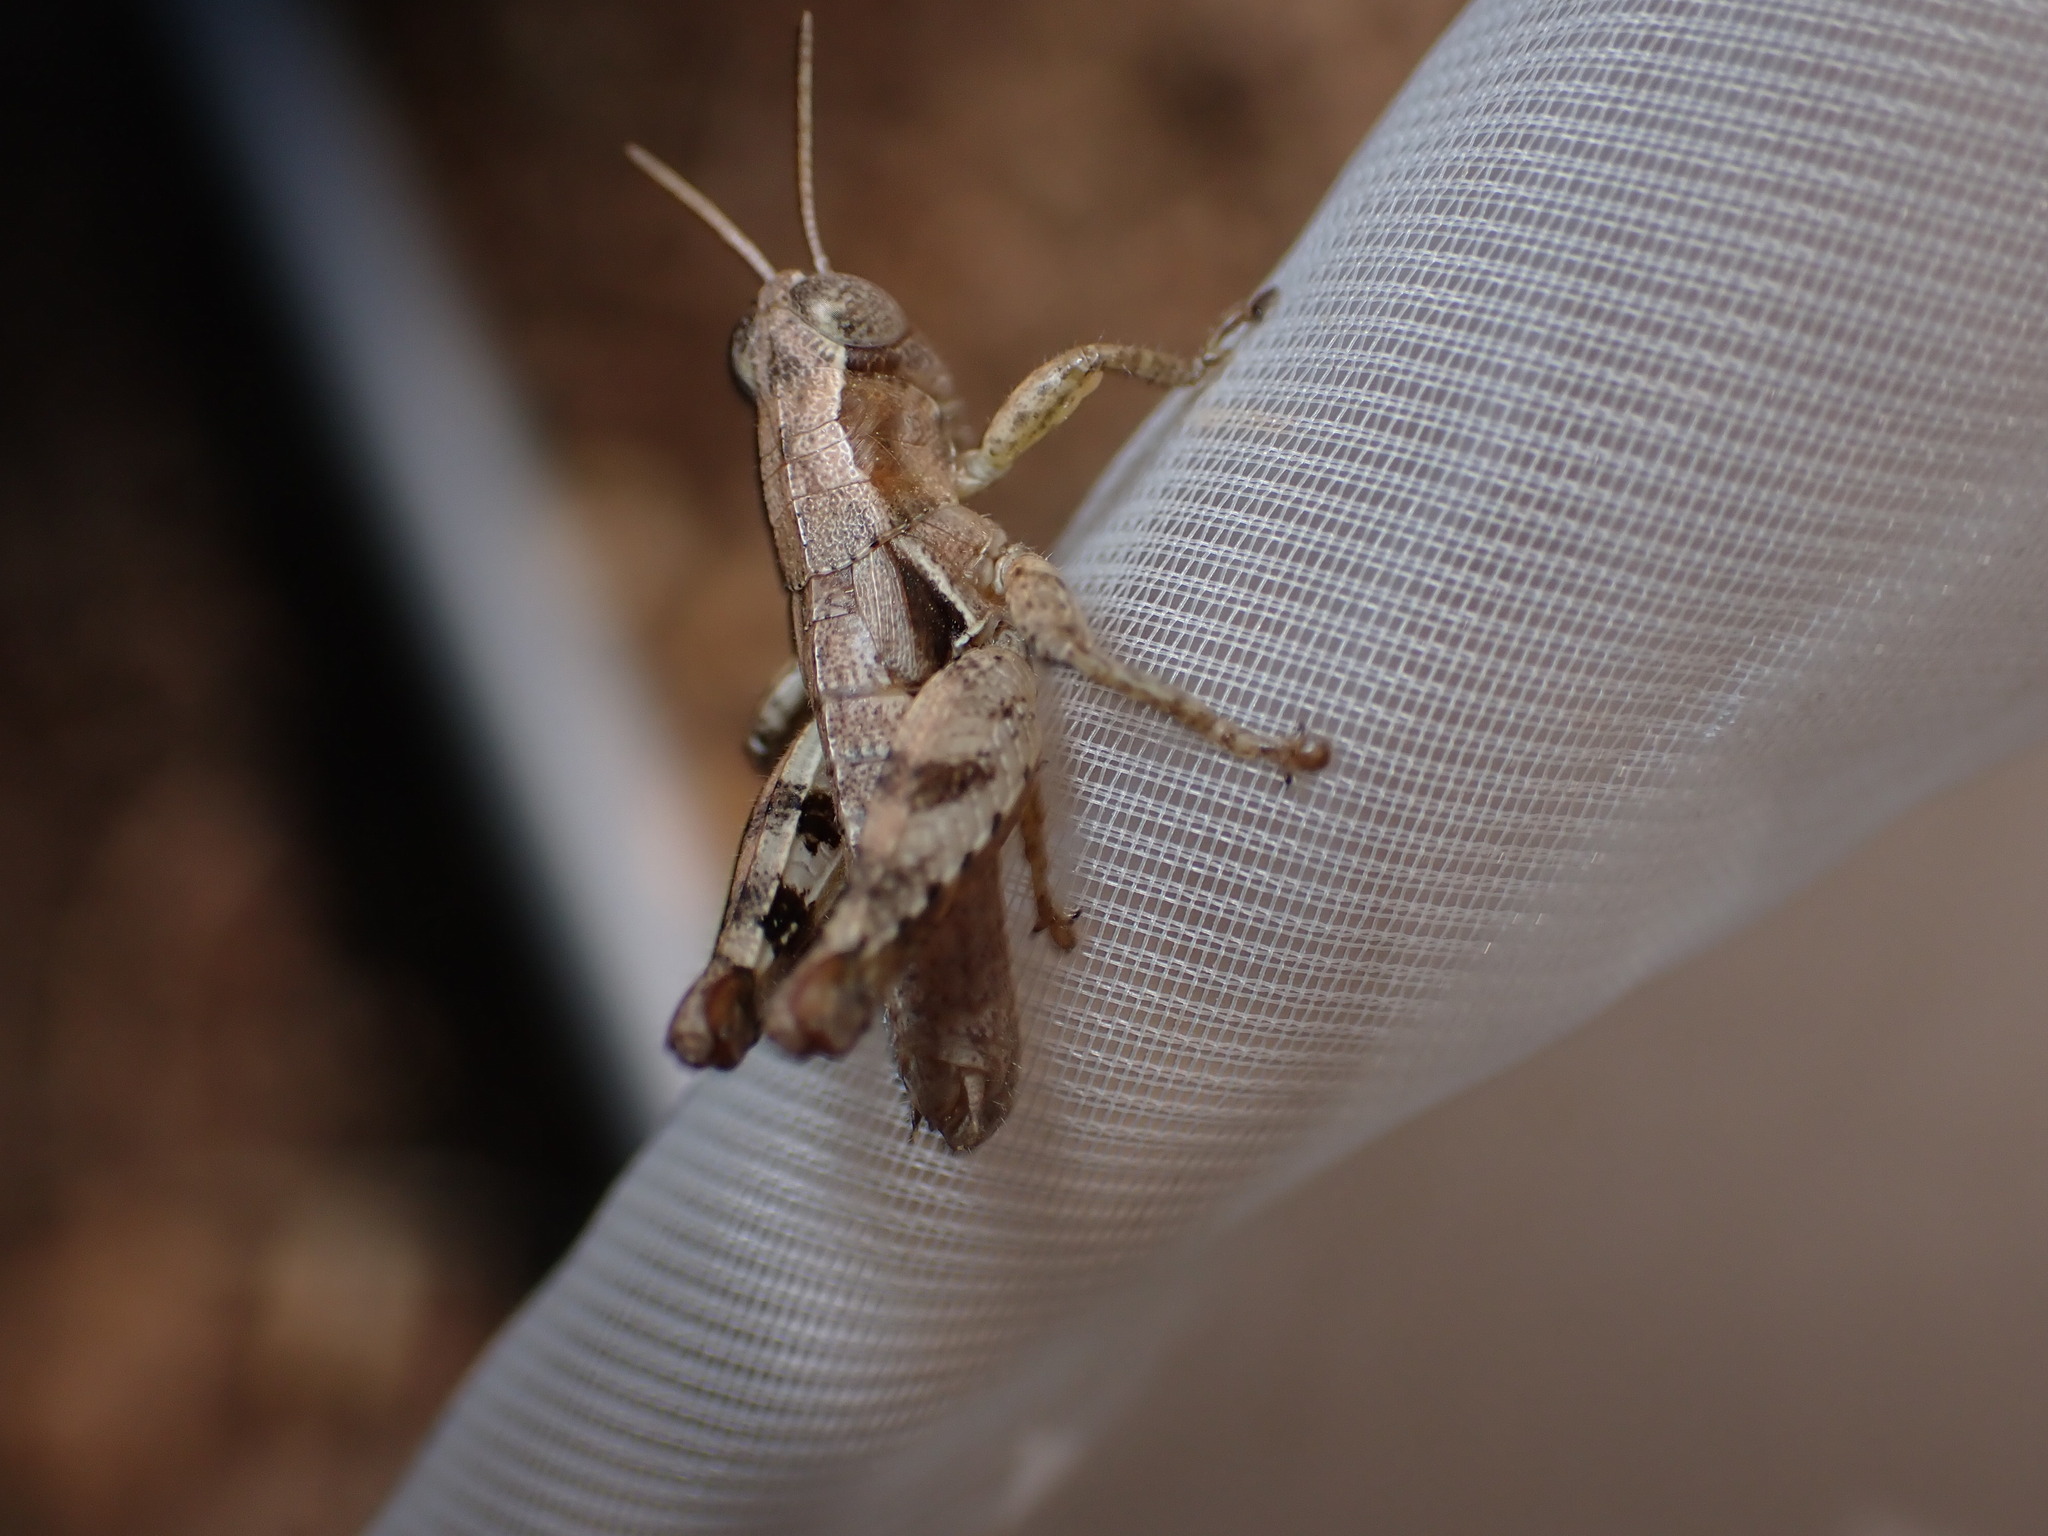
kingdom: Animalia
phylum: Arthropoda
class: Insecta
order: Orthoptera
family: Acrididae
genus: Pezotettix
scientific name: Pezotettix giornae
